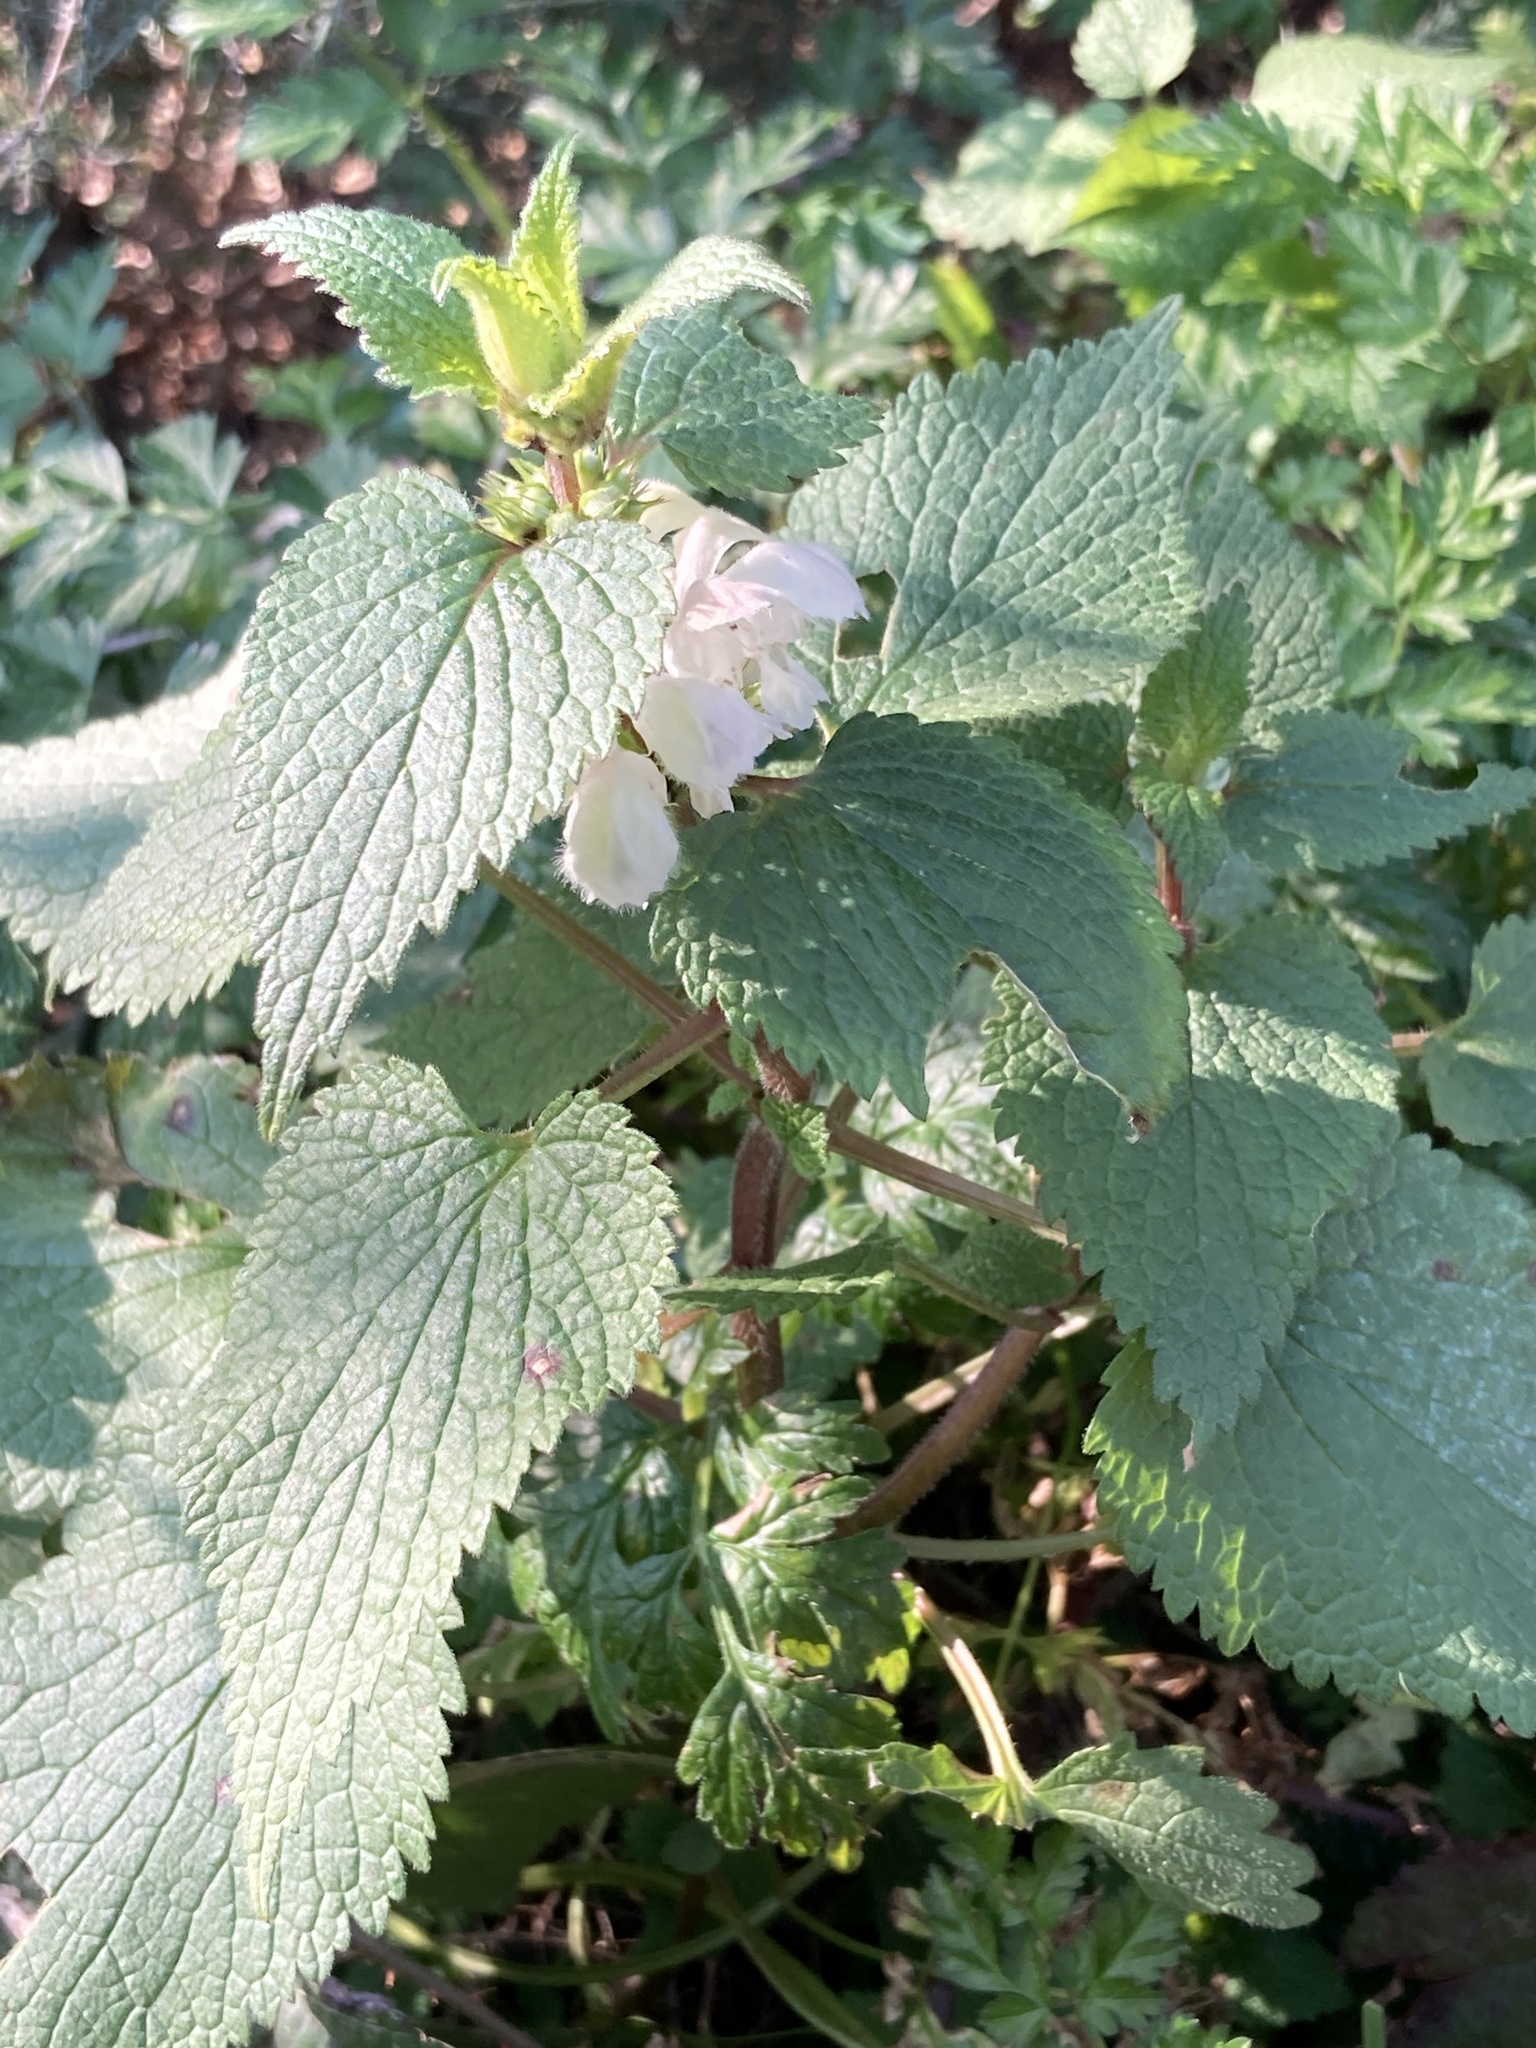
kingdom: Plantae
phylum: Tracheophyta
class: Magnoliopsida
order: Lamiales
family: Lamiaceae
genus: Lamium
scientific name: Lamium album
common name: White dead-nettle
